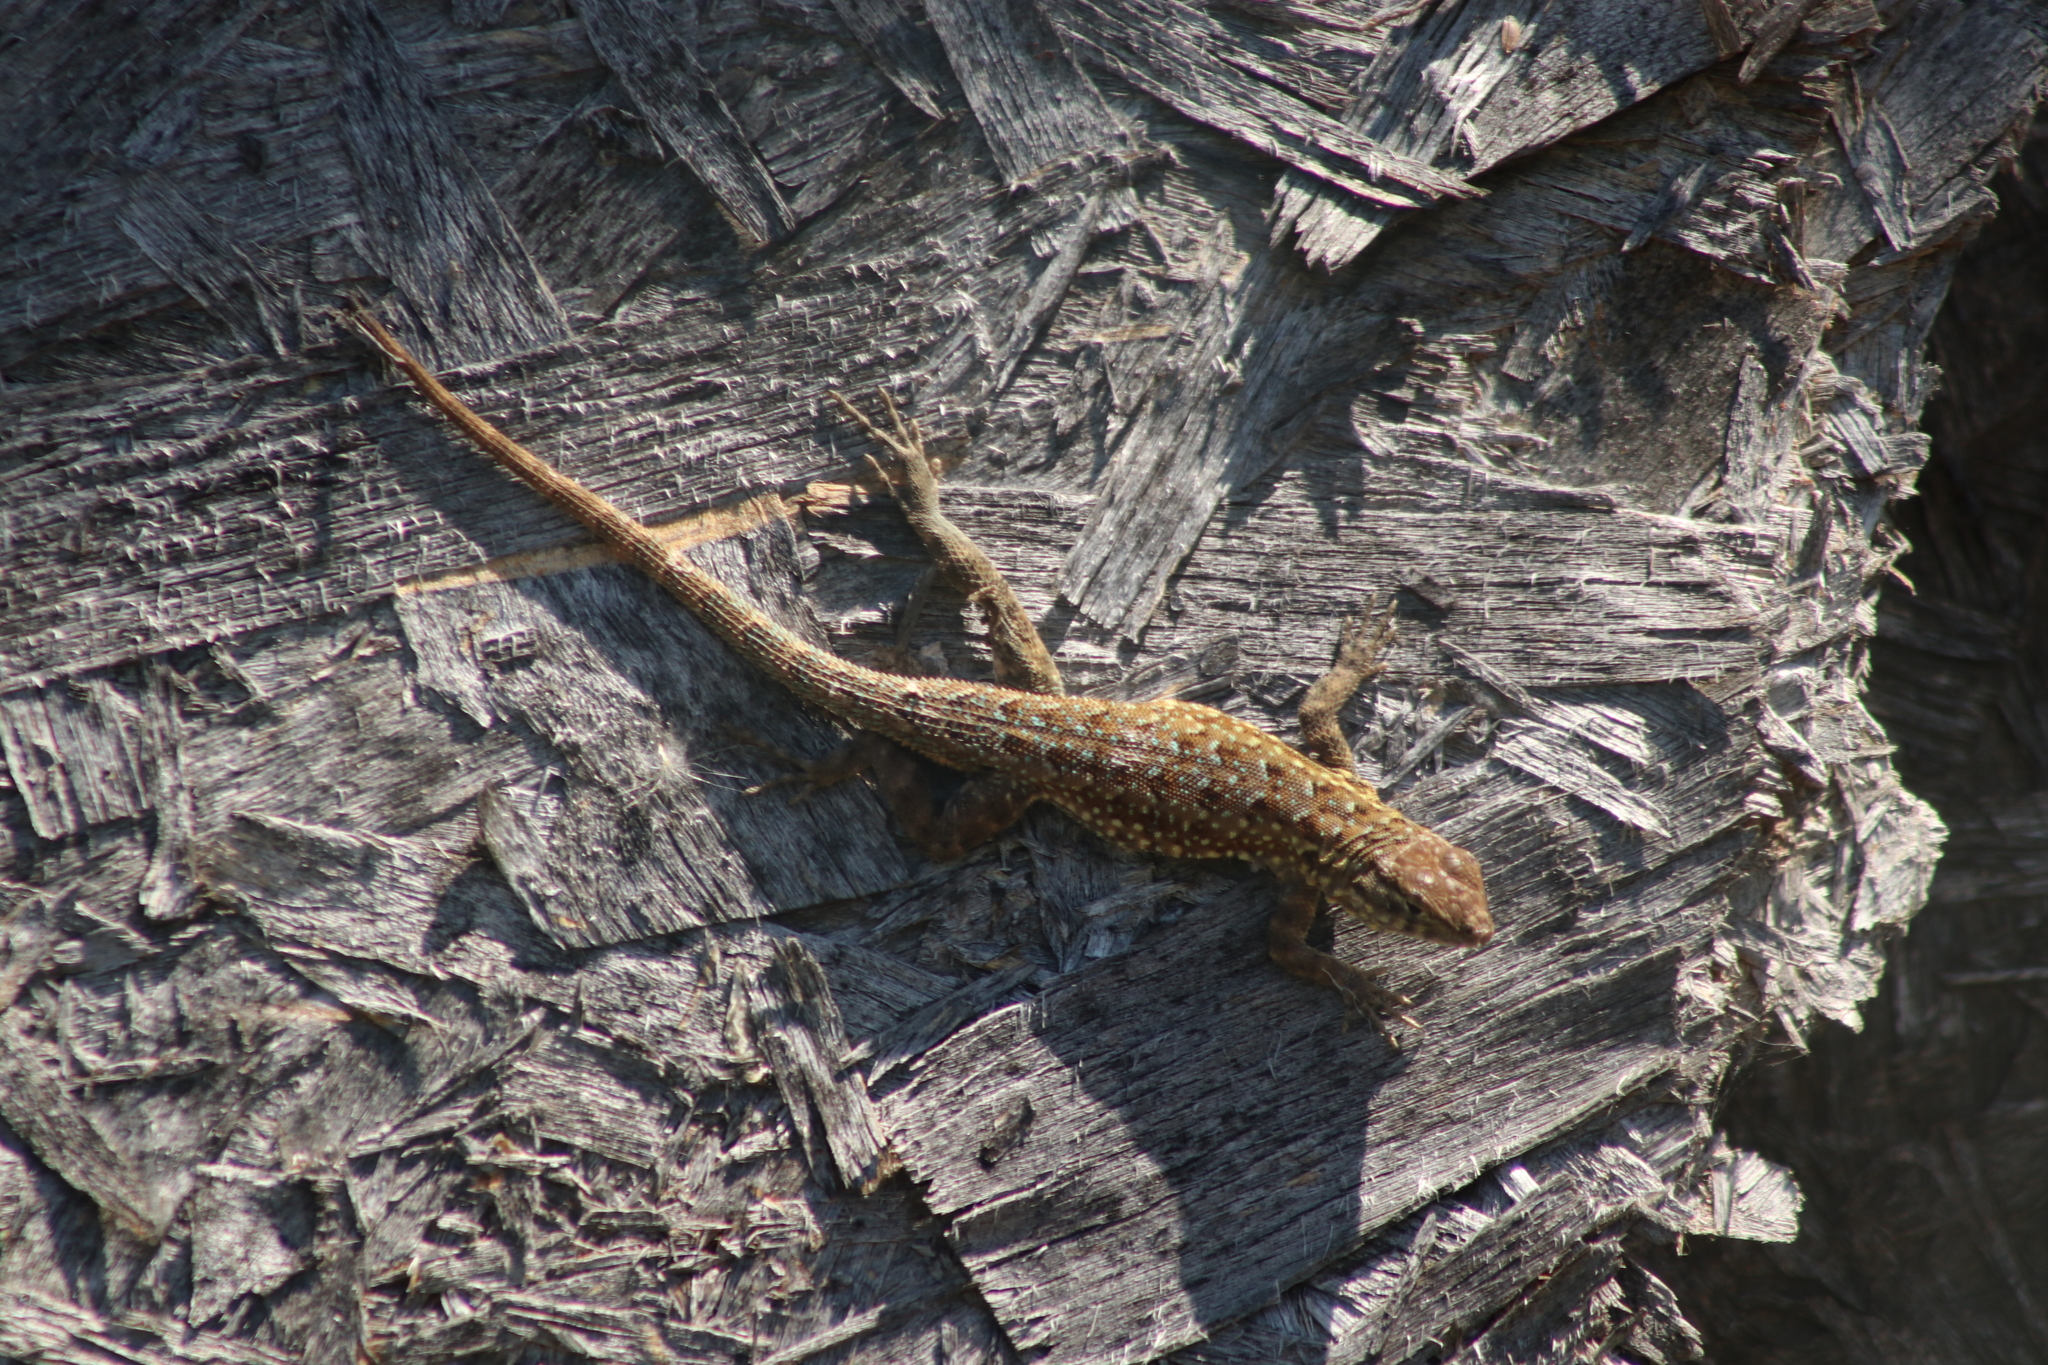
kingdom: Animalia
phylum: Chordata
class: Squamata
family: Phrynosomatidae
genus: Uta
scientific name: Uta stansburiana
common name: Side-blotched lizard
